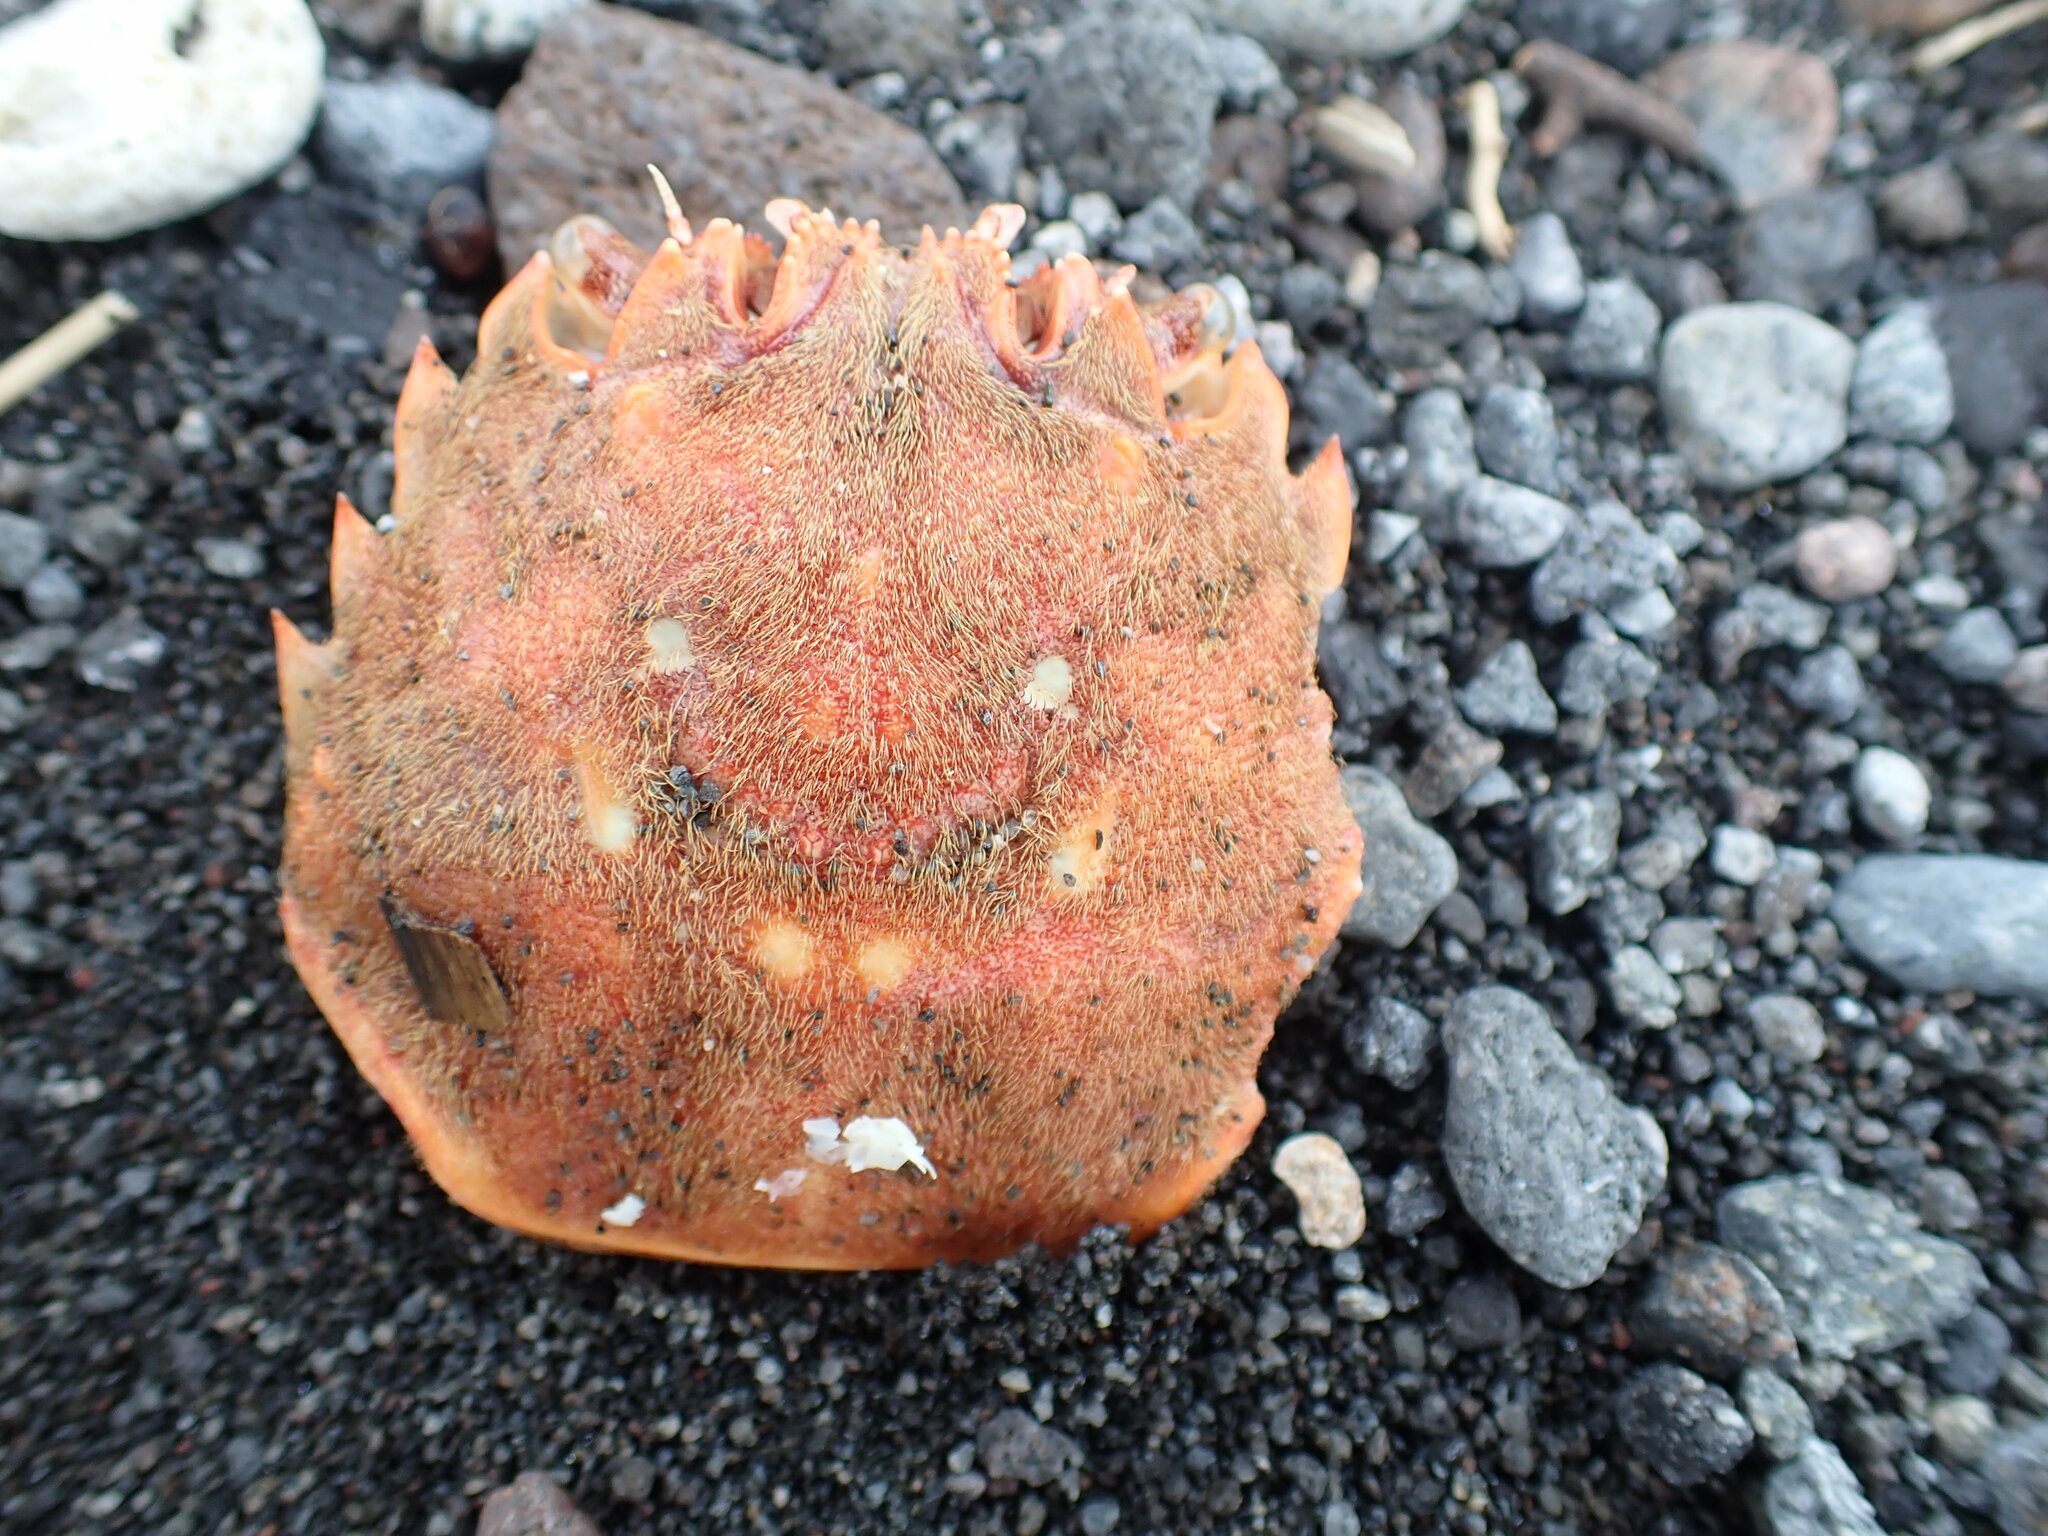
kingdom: Animalia
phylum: Arthropoda
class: Malacostraca
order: Decapoda
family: Plagusiidae
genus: Guinusia
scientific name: Guinusia chabrus
